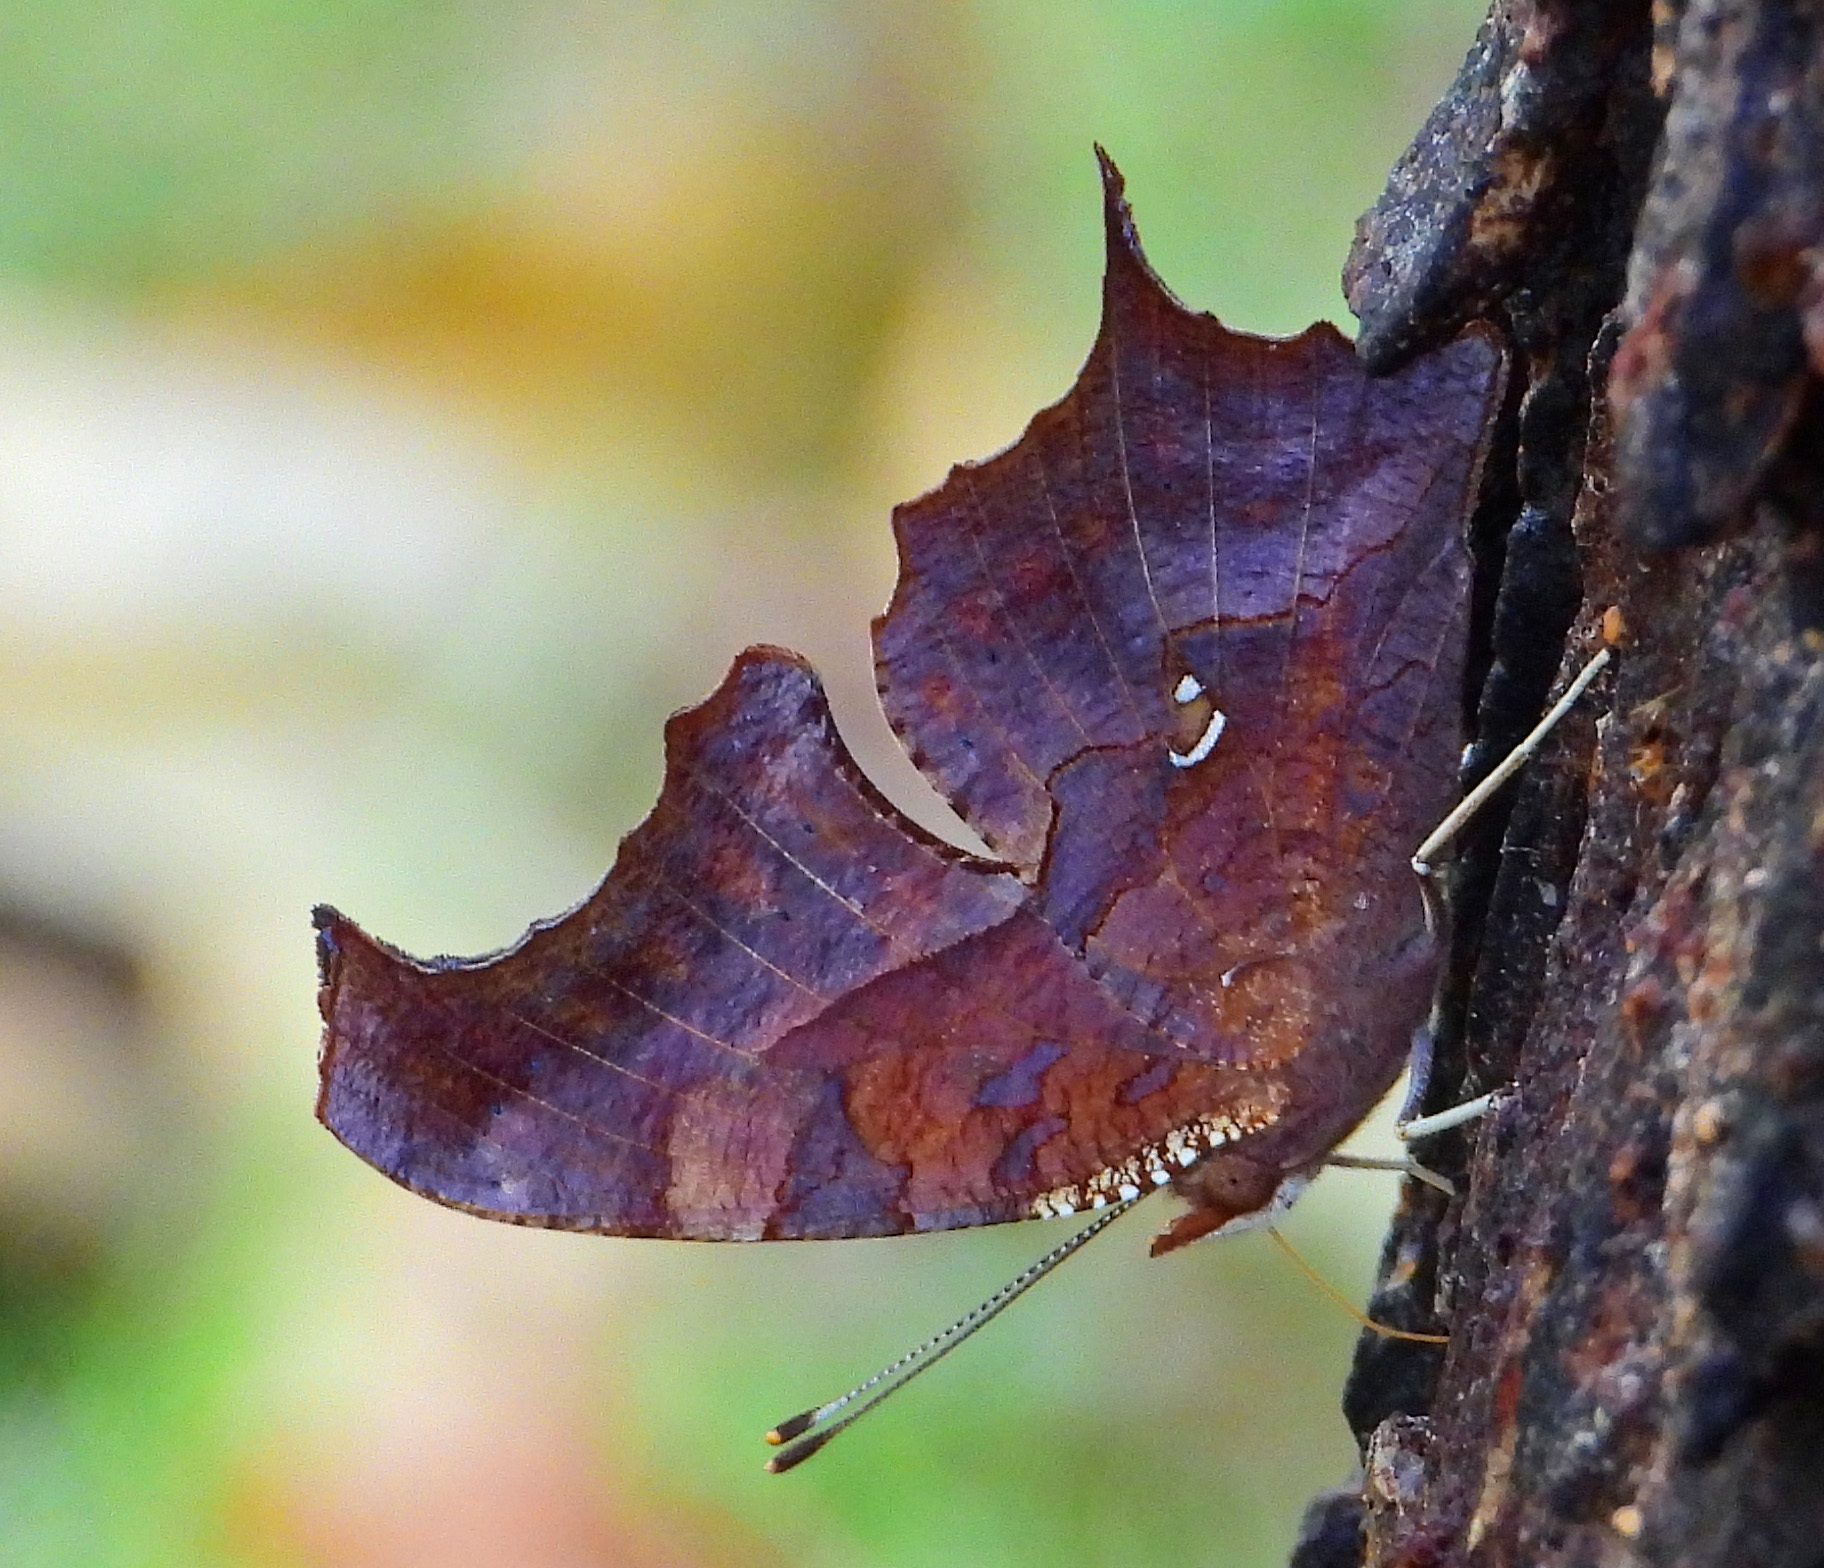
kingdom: Animalia
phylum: Arthropoda
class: Insecta
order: Lepidoptera
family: Nymphalidae
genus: Polygonia
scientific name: Polygonia interrogationis
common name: Question mark
